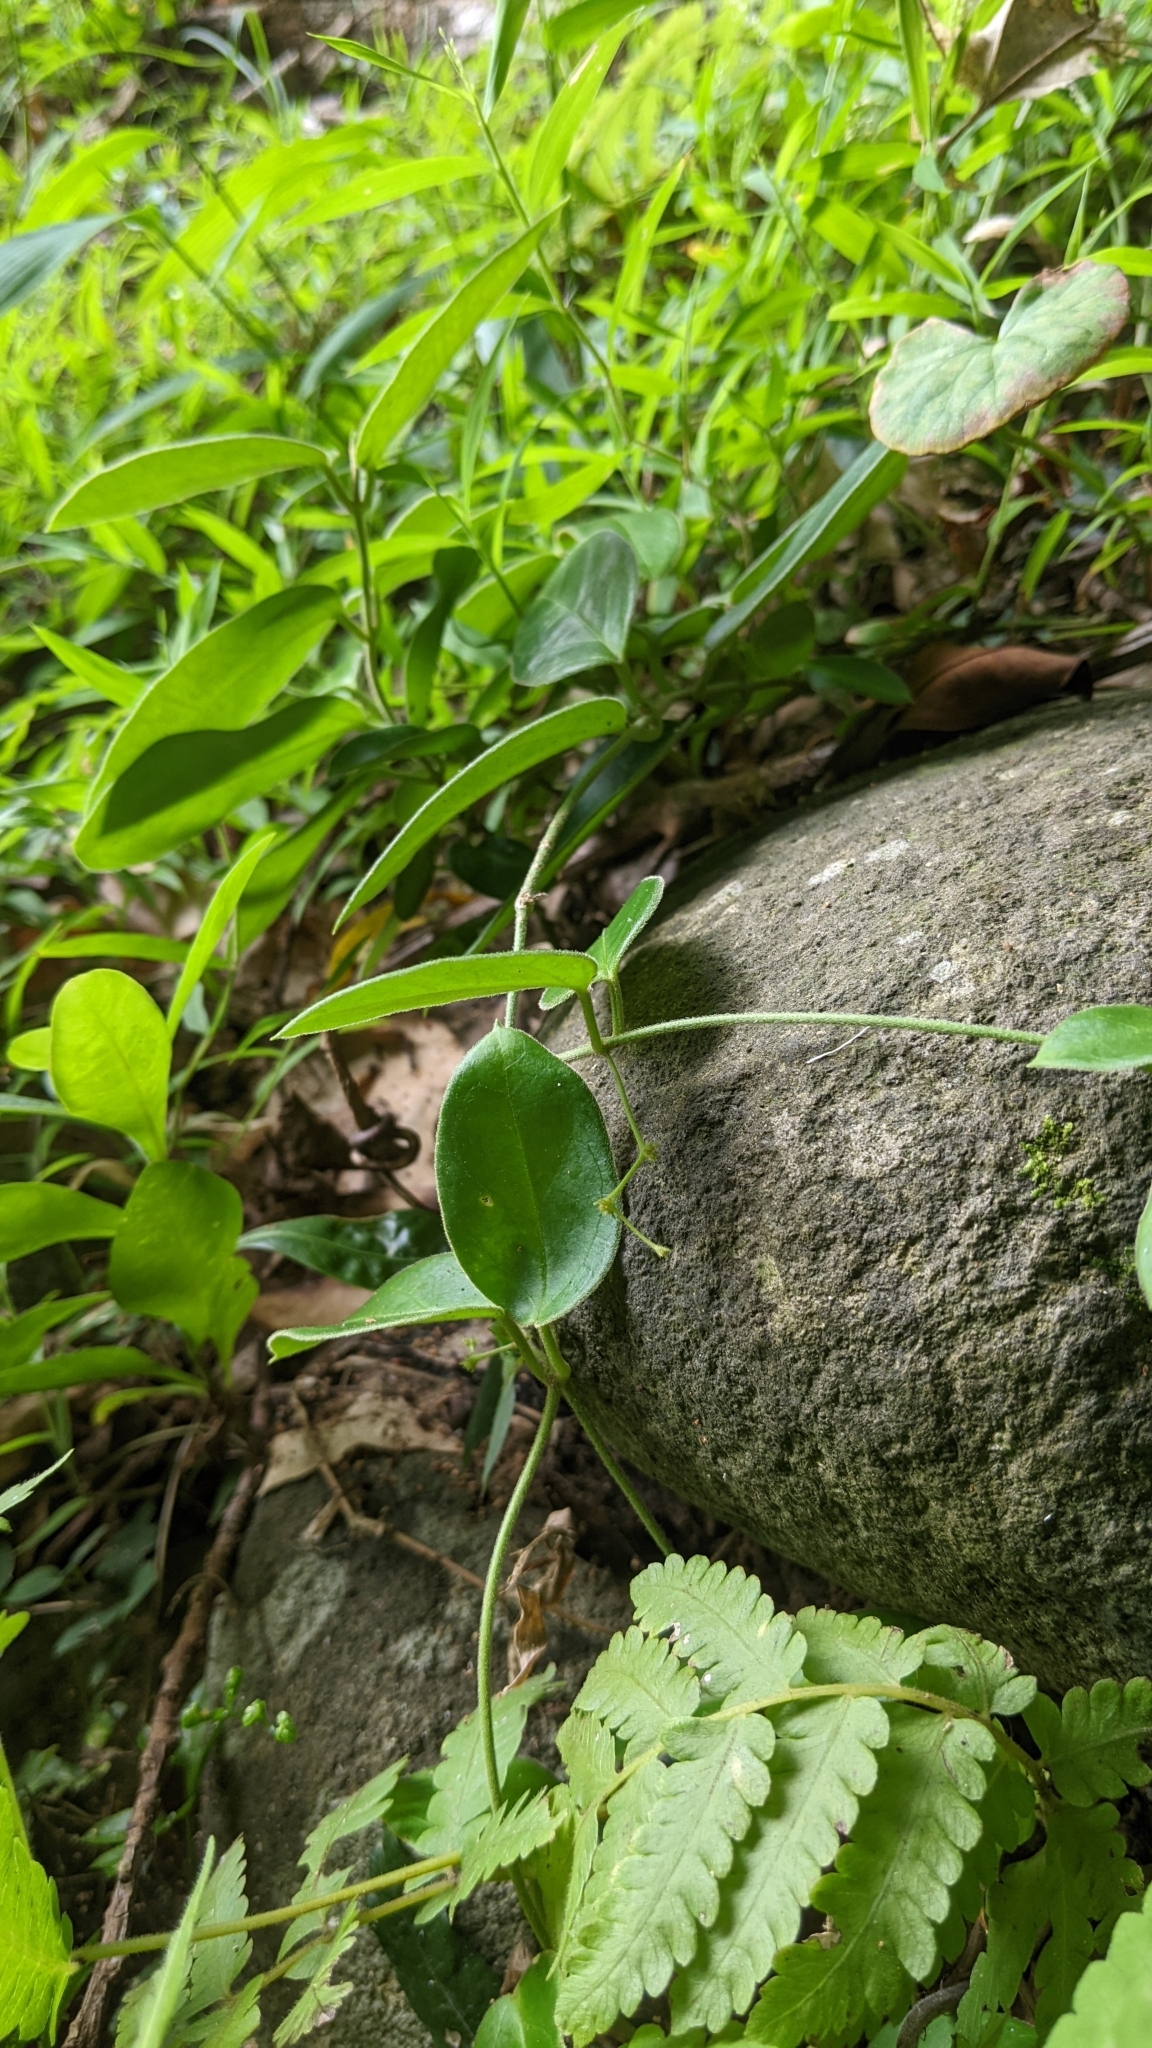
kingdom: Plantae
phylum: Tracheophyta
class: Magnoliopsida
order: Gentianales
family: Apocynaceae
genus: Vincetoxicum
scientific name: Vincetoxicum hirsutum
